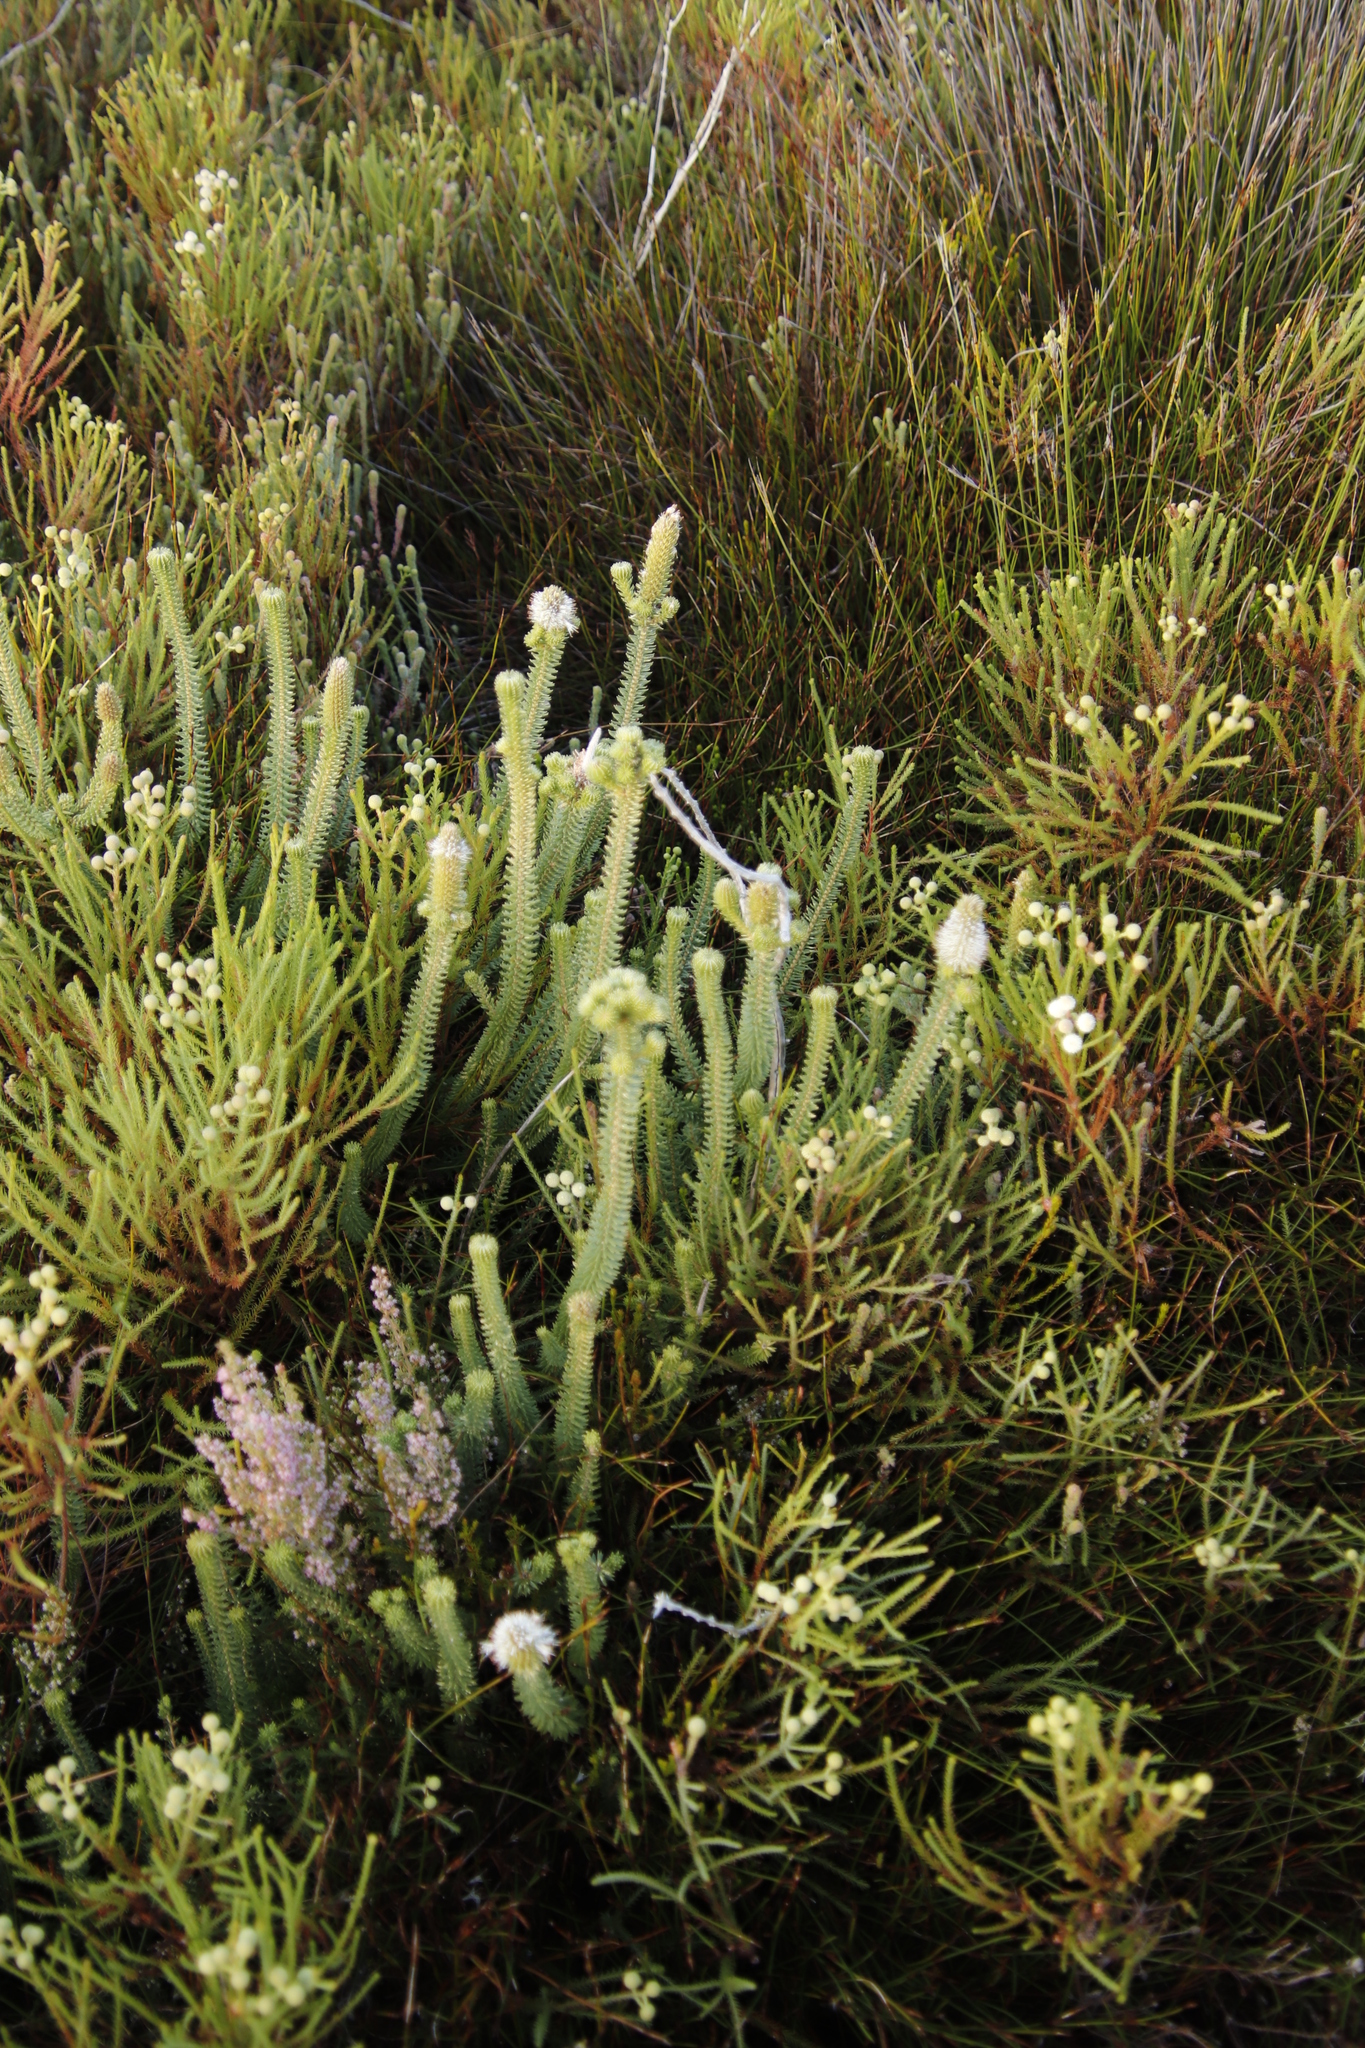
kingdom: Plantae
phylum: Tracheophyta
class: Magnoliopsida
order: Lamiales
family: Stilbaceae
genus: Stilbe
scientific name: Stilbe vestita
